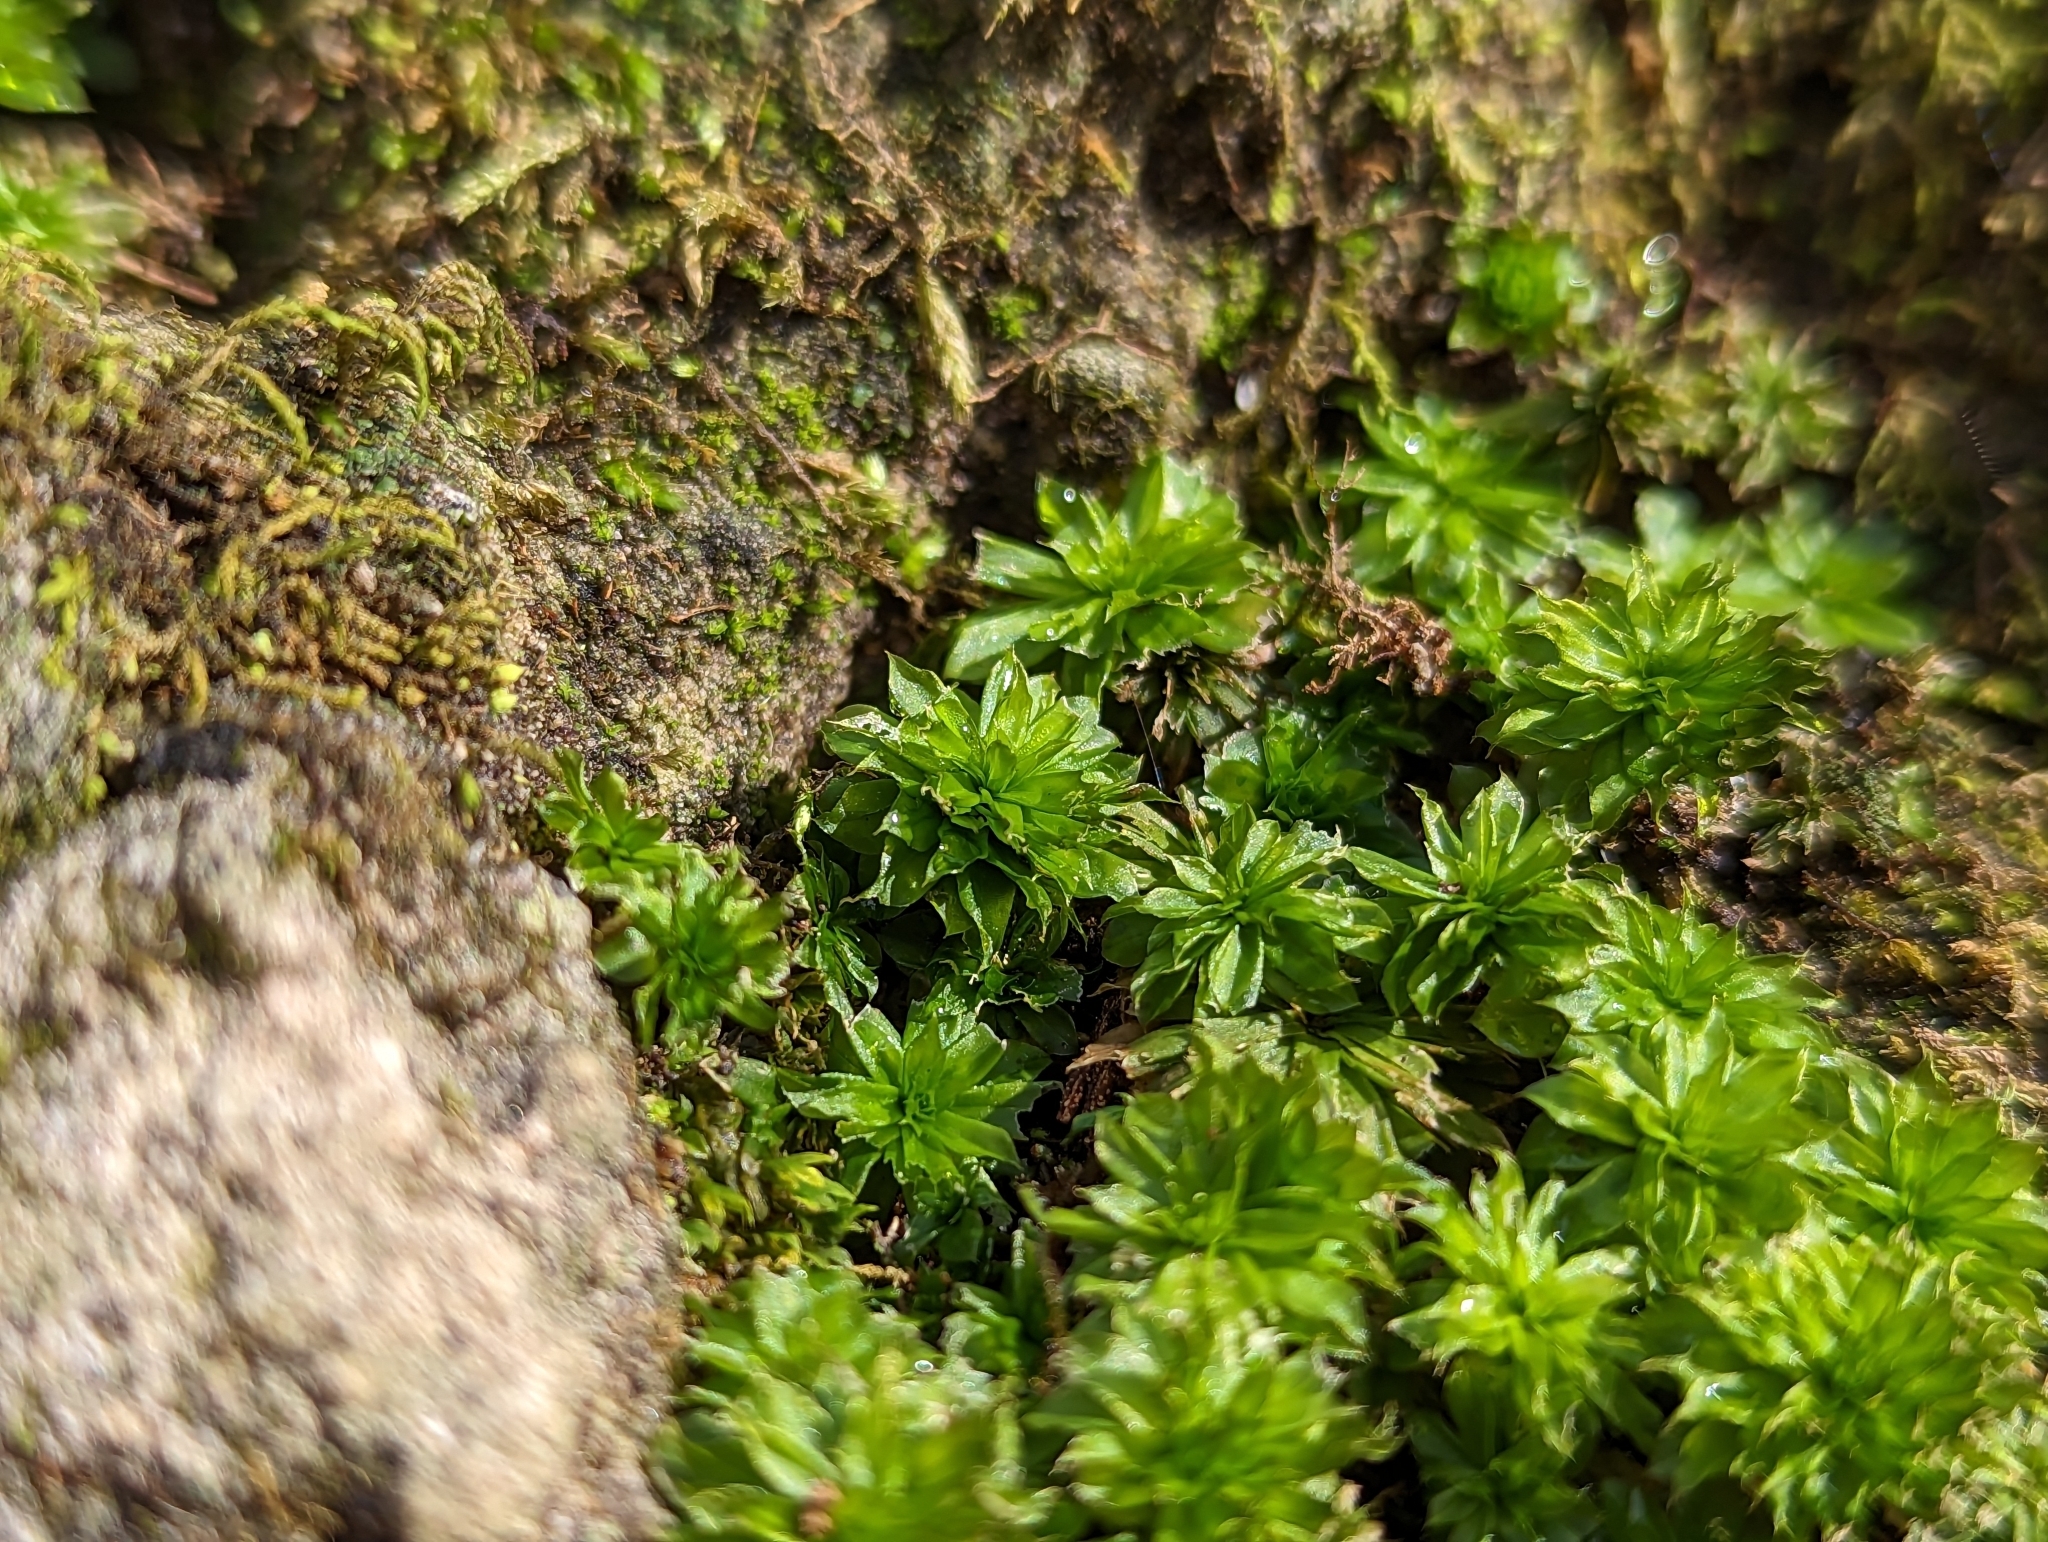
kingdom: Plantae
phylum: Bryophyta
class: Bryopsida
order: Bryales
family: Bryaceae
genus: Rhodobryum
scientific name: Rhodobryum ontariense
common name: Ontario rhodobryum moss
